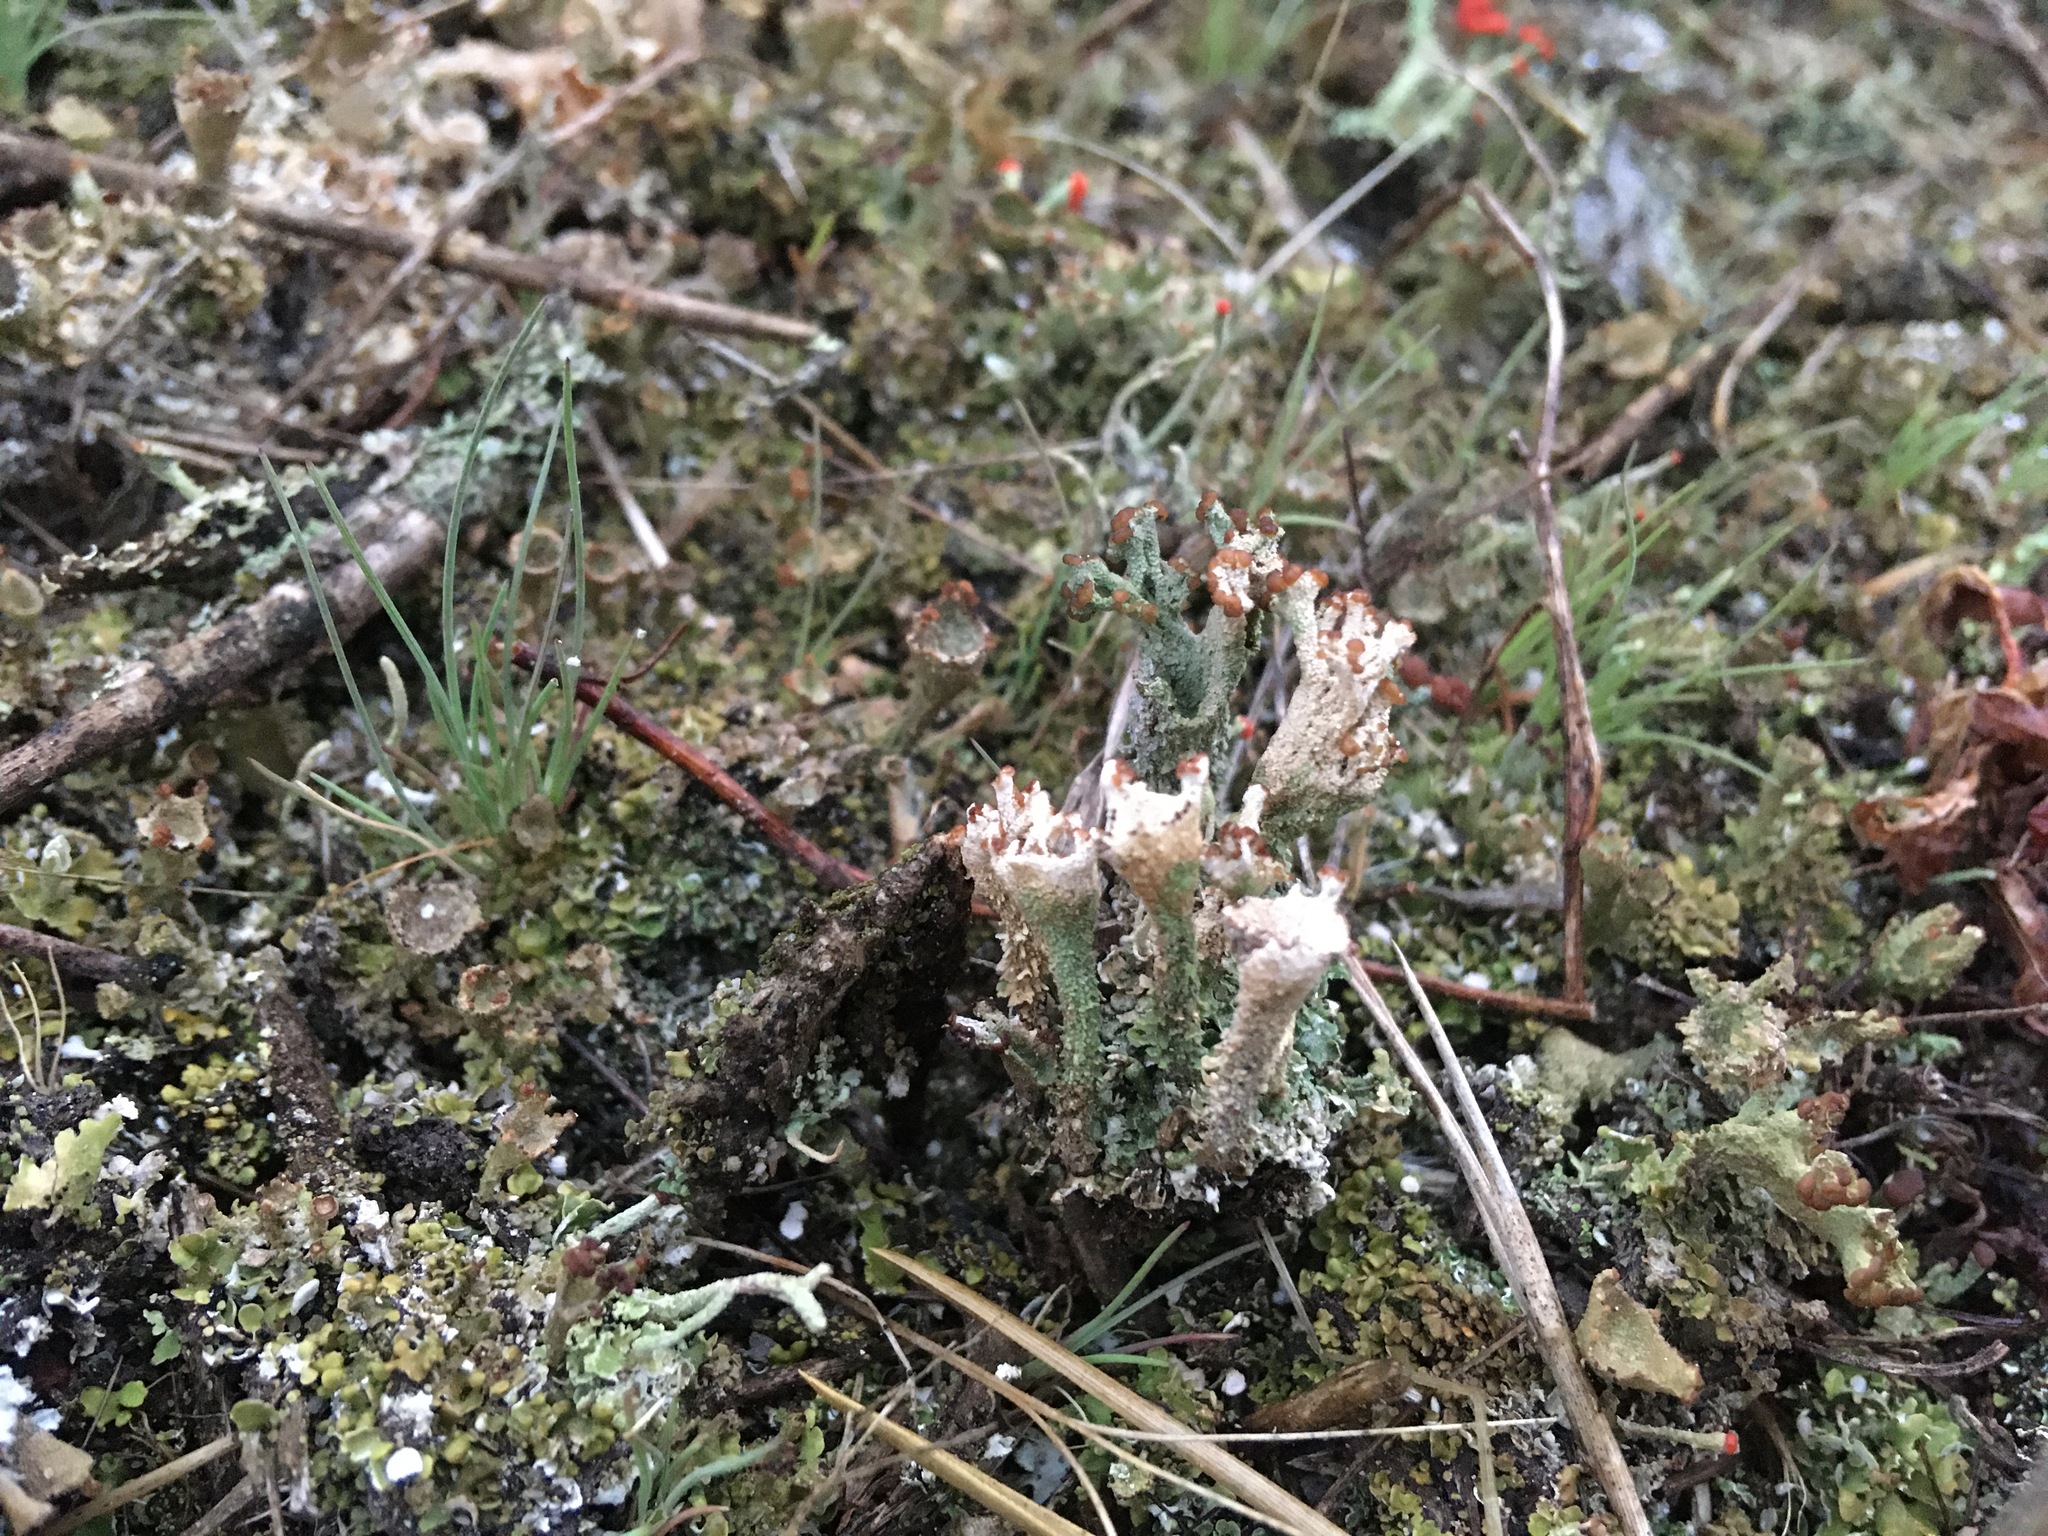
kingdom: Fungi
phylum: Ascomycota
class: Lecanoromycetes
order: Lecanorales
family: Cladoniaceae
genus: Cladonia
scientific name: Cladonia fimbriata
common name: Powdered trumpet lichen
